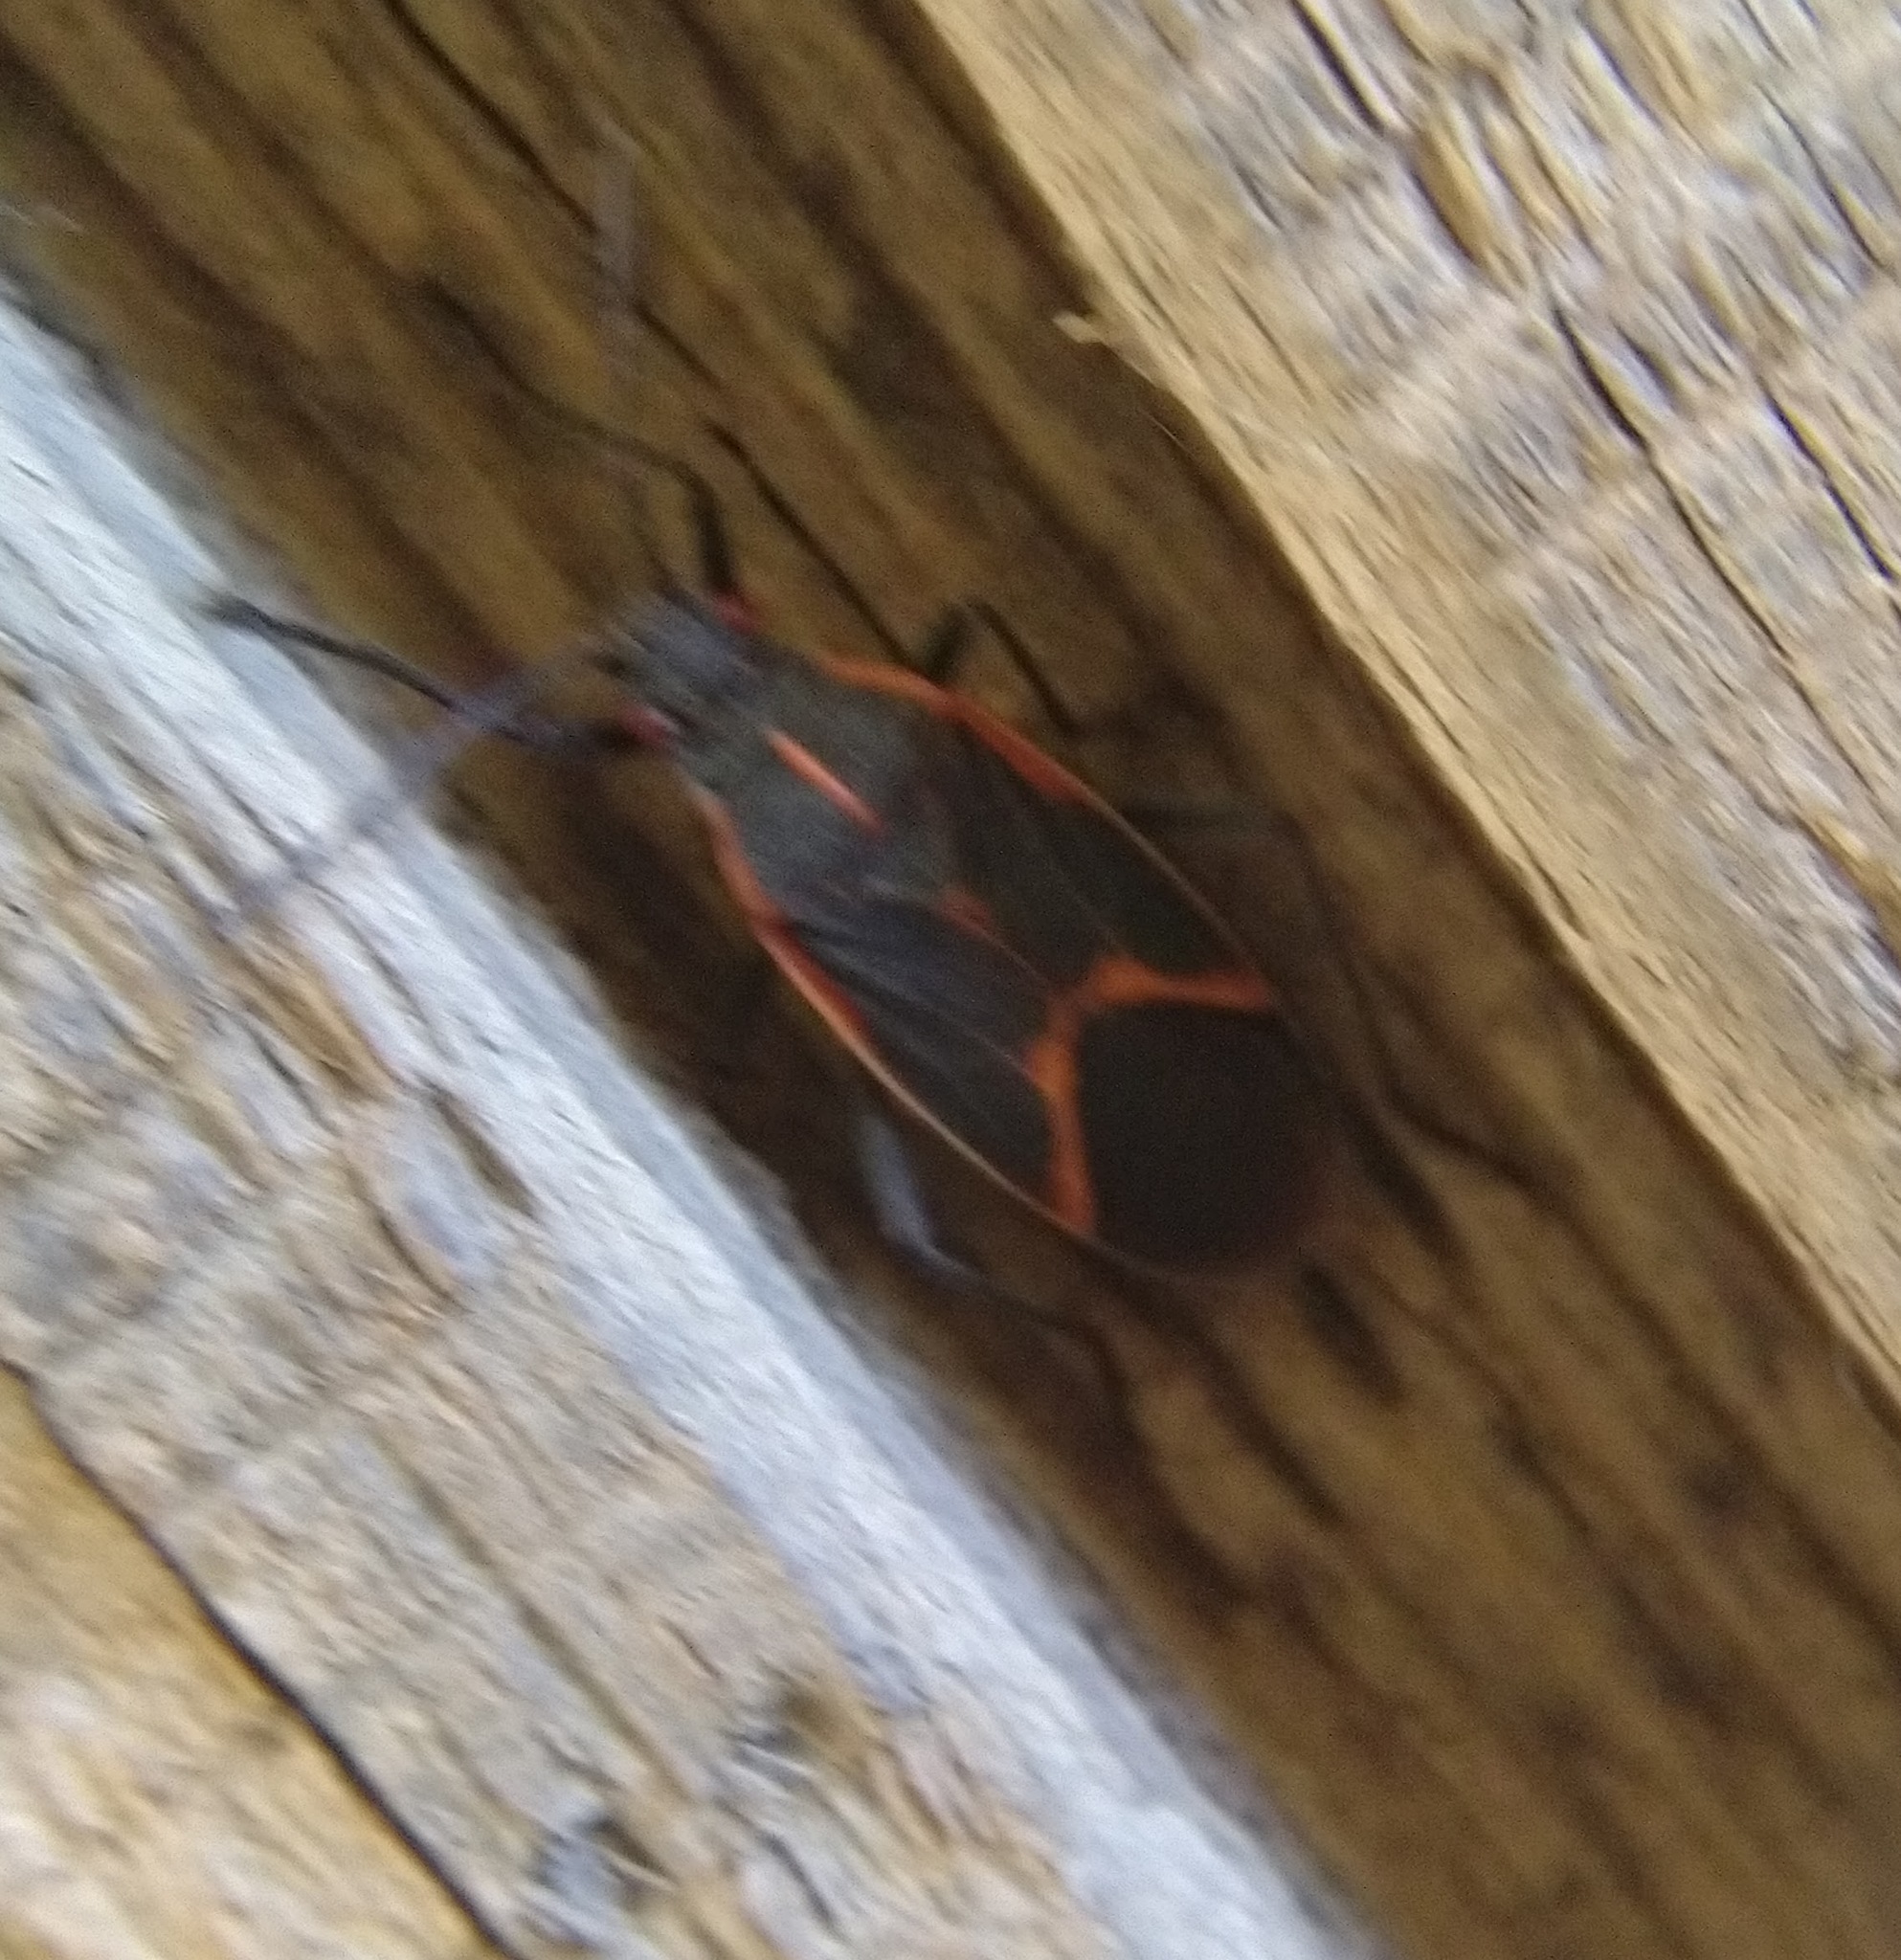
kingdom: Animalia
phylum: Arthropoda
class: Insecta
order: Hemiptera
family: Rhopalidae
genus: Boisea
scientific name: Boisea trivittata
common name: Boxelder bug
